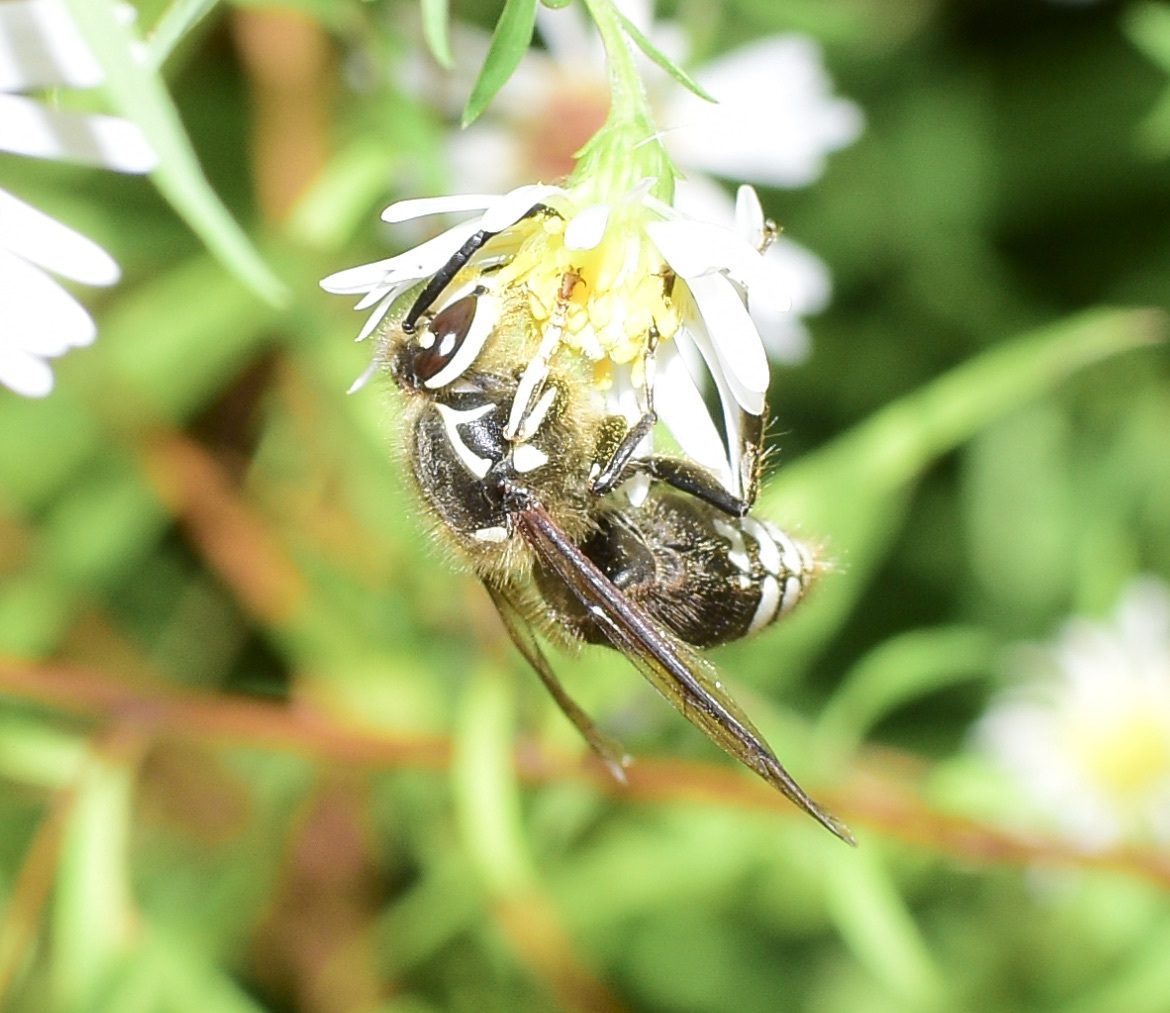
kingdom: Animalia
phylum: Arthropoda
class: Insecta
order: Hymenoptera
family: Vespidae
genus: Dolichovespula
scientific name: Dolichovespula maculata
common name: Bald-faced hornet
